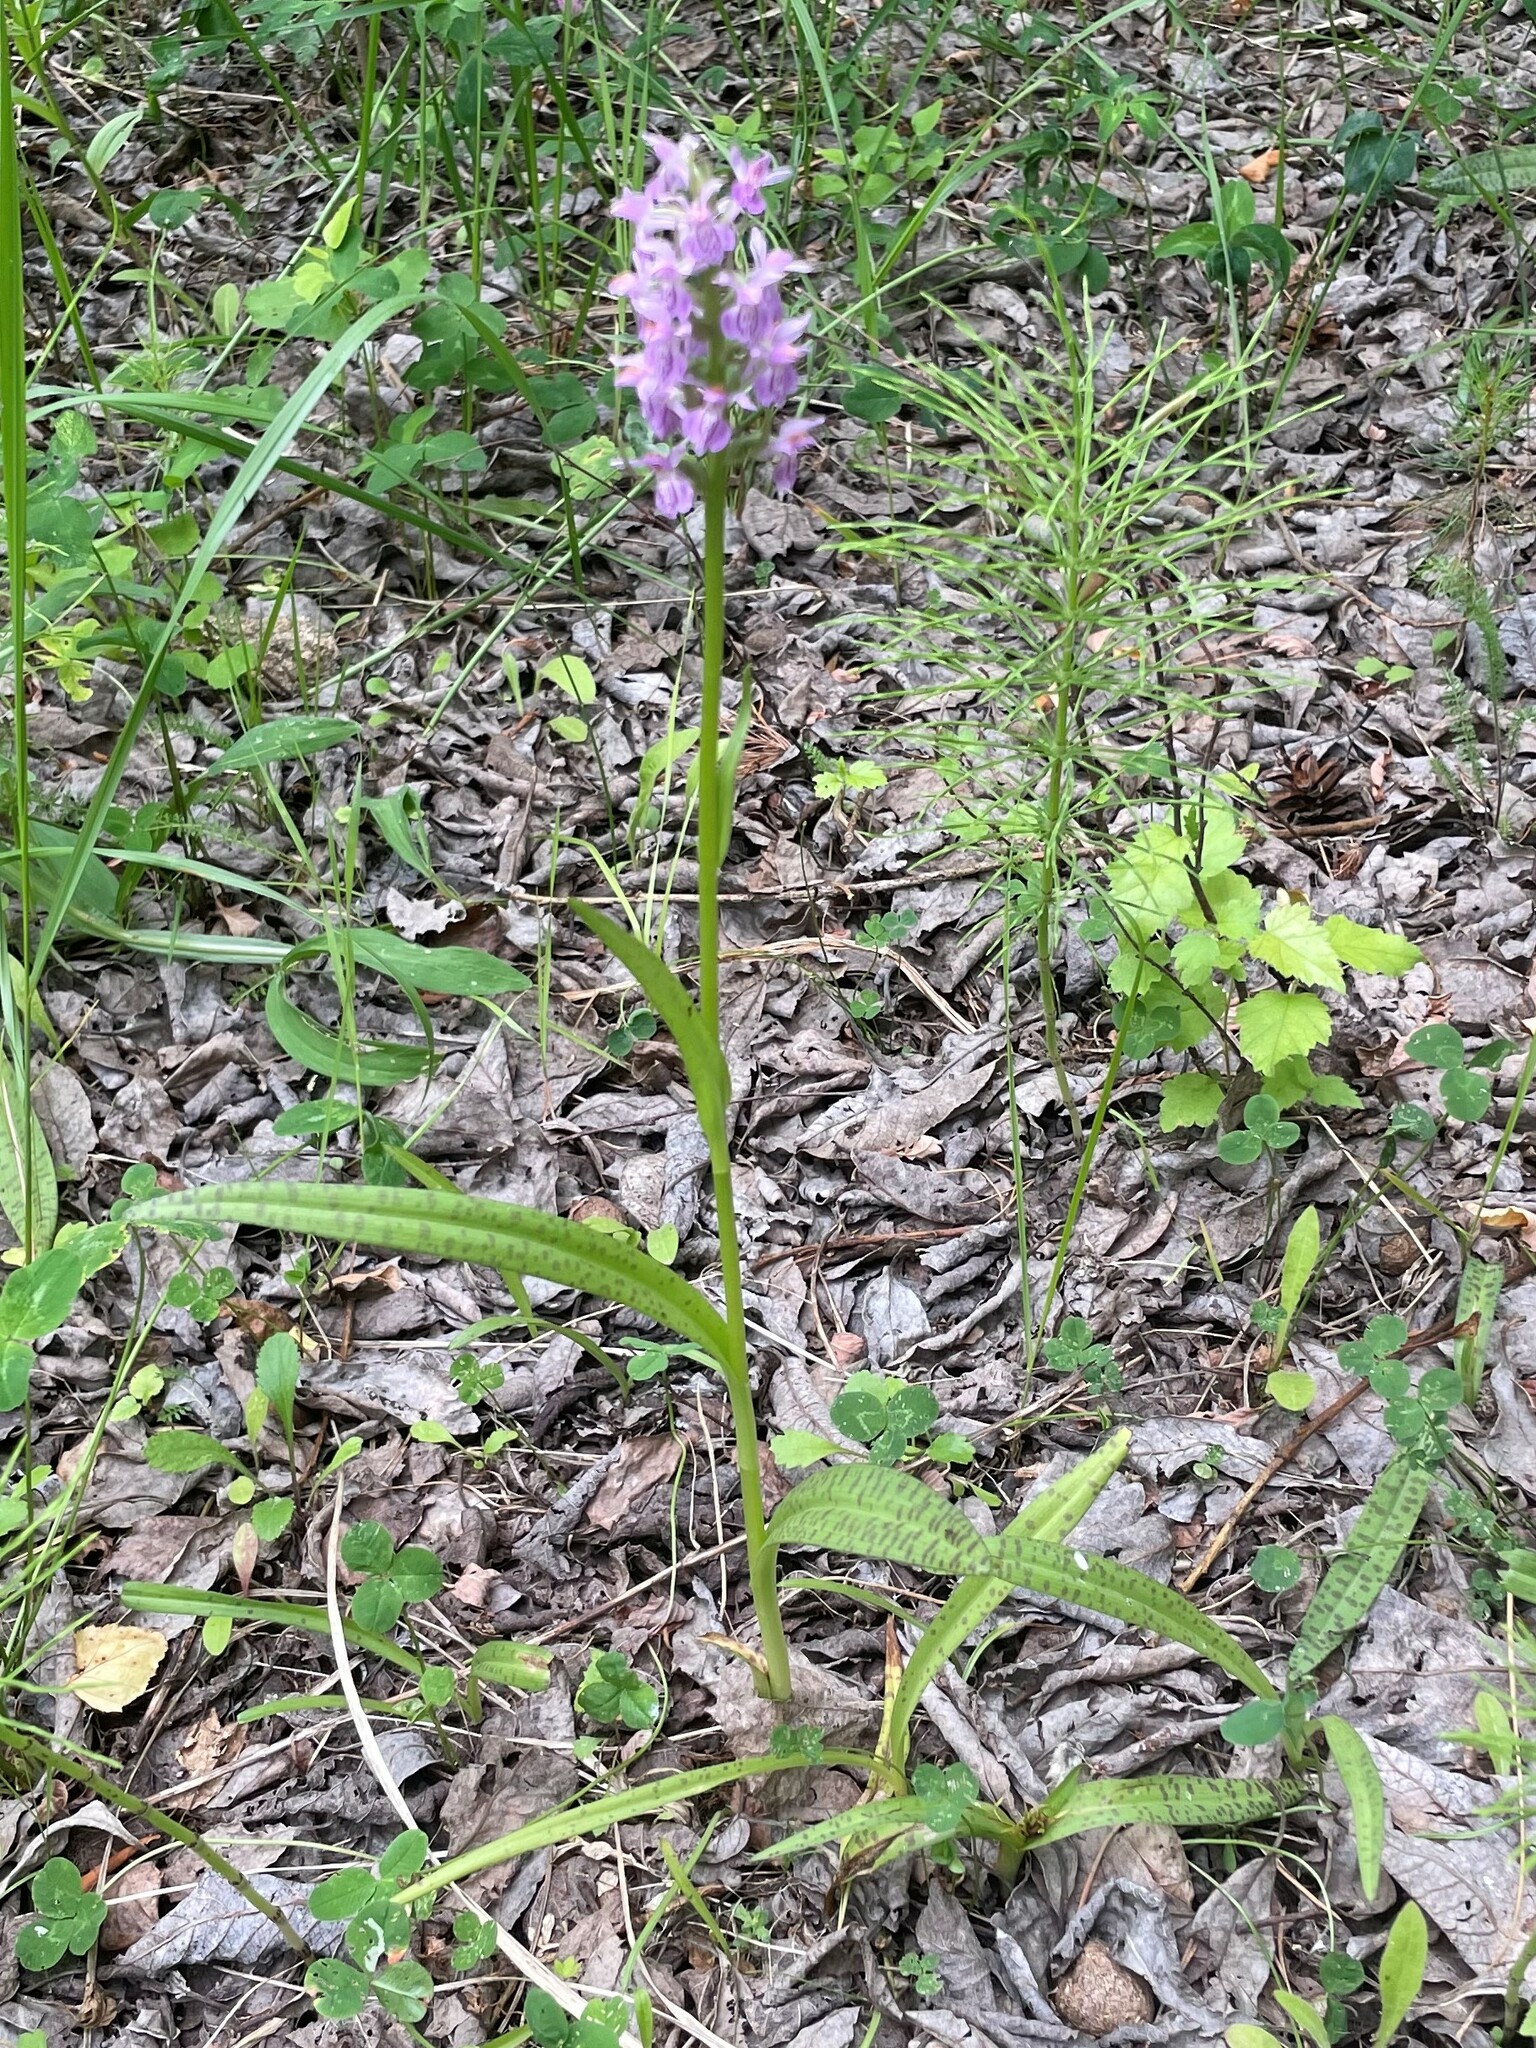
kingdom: Plantae
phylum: Tracheophyta
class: Liliopsida
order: Asparagales
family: Orchidaceae
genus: Dactylorhiza
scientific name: Dactylorhiza majalis
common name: Marsh orchid
